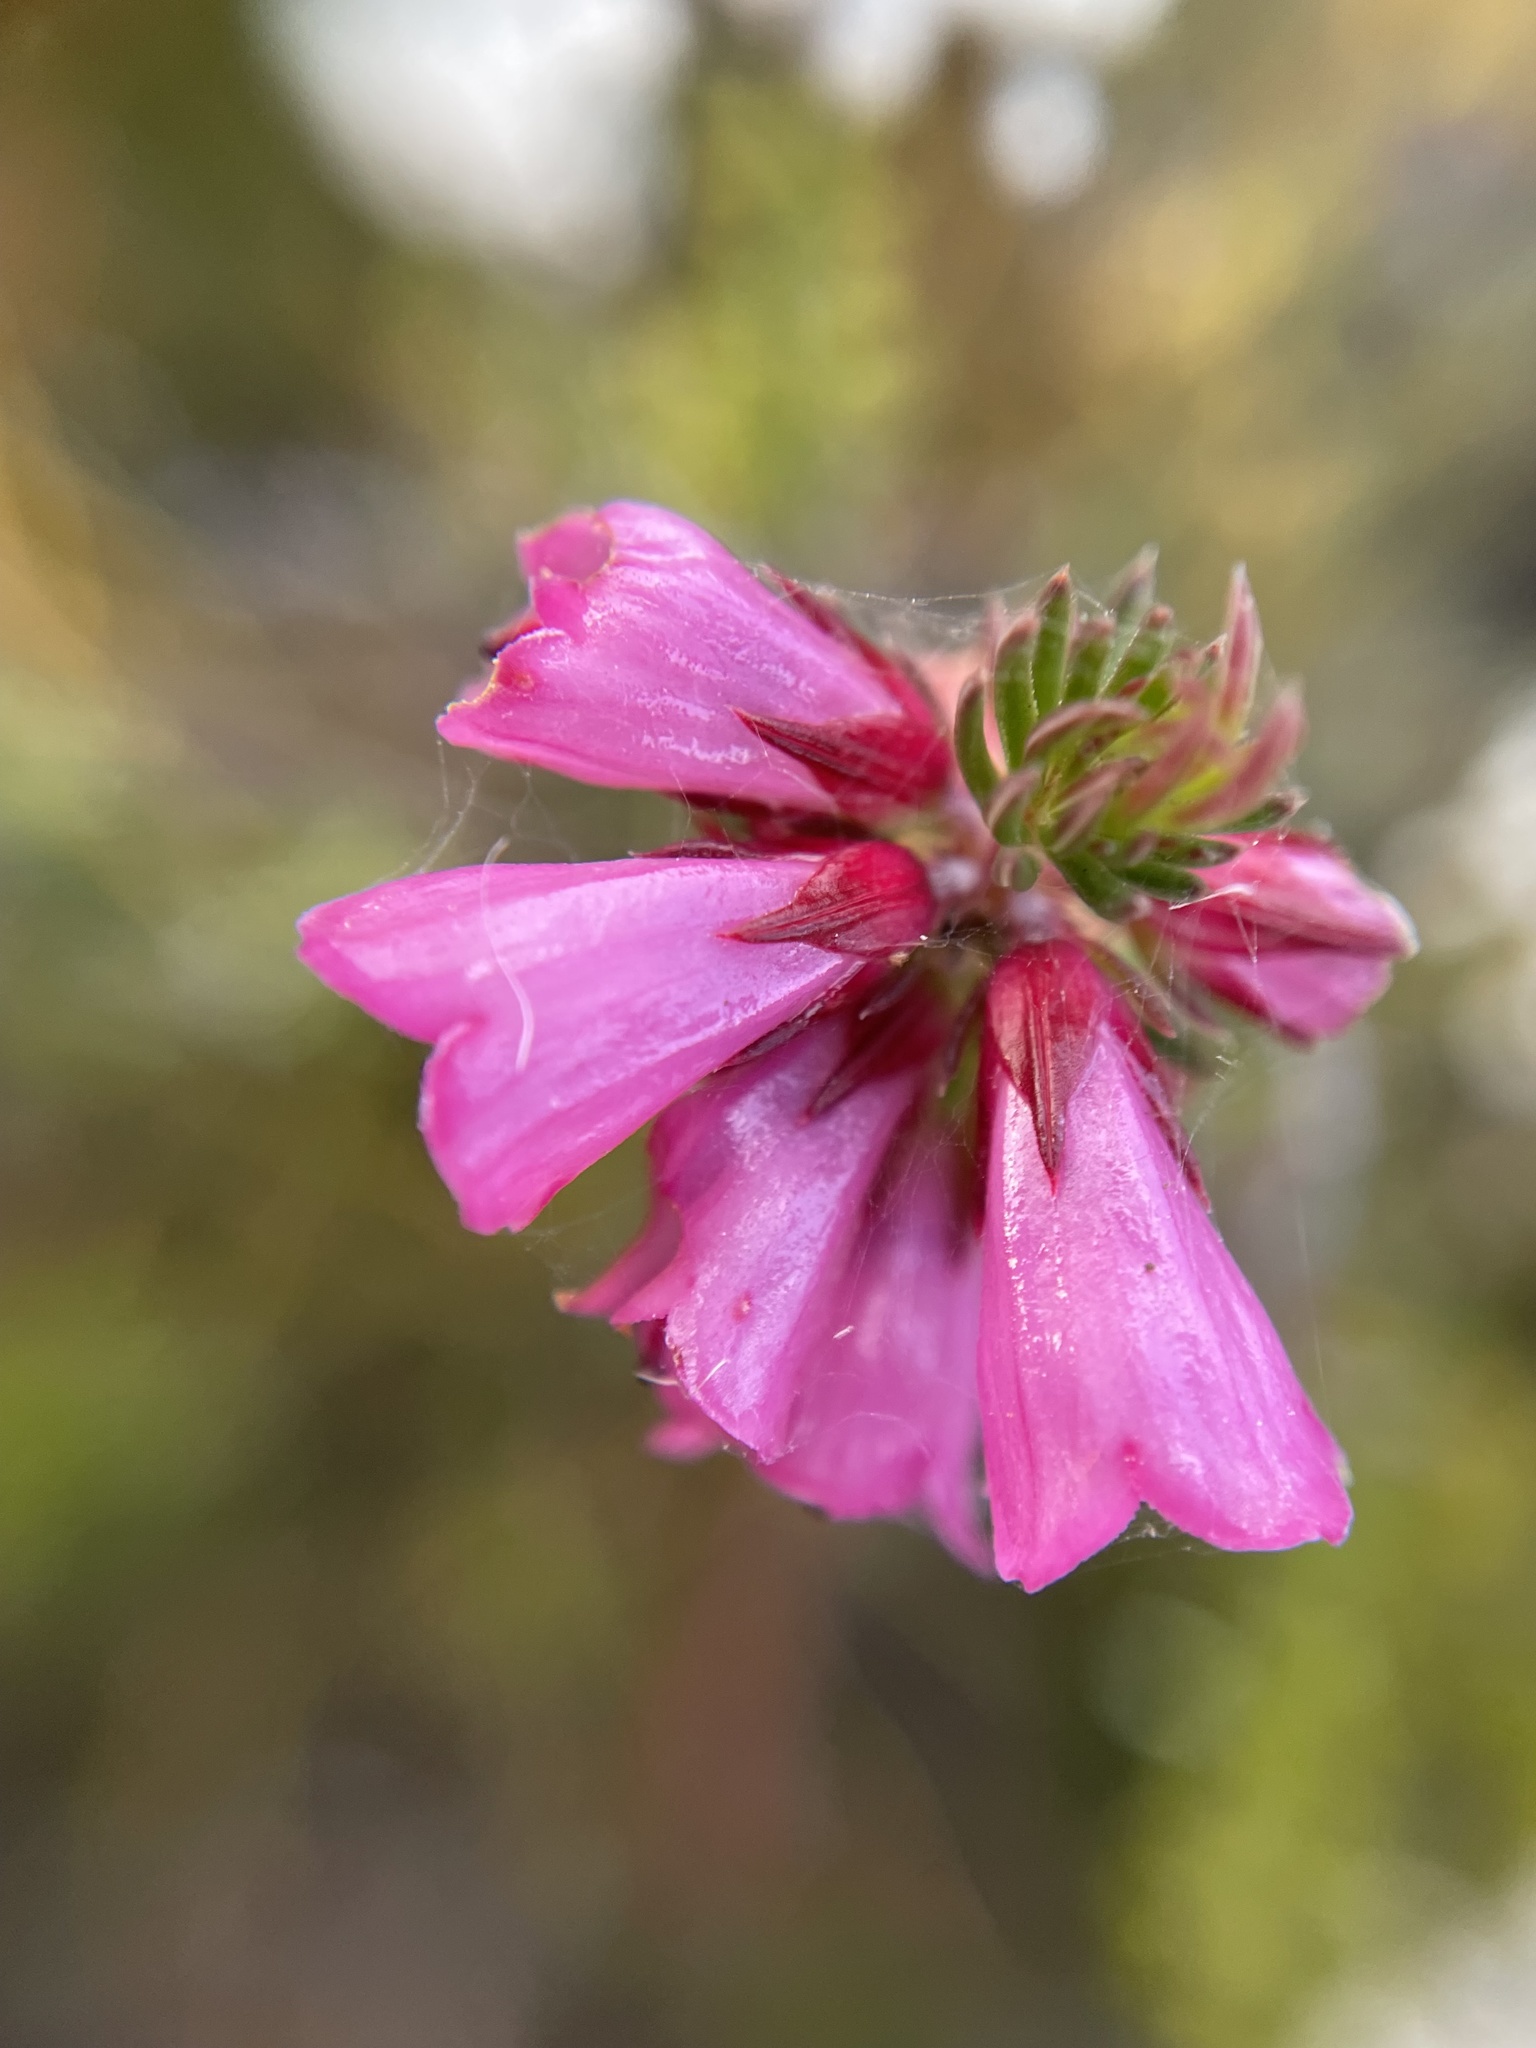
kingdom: Plantae
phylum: Tracheophyta
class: Magnoliopsida
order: Ericales
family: Ericaceae
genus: Erica
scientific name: Erica abietina
